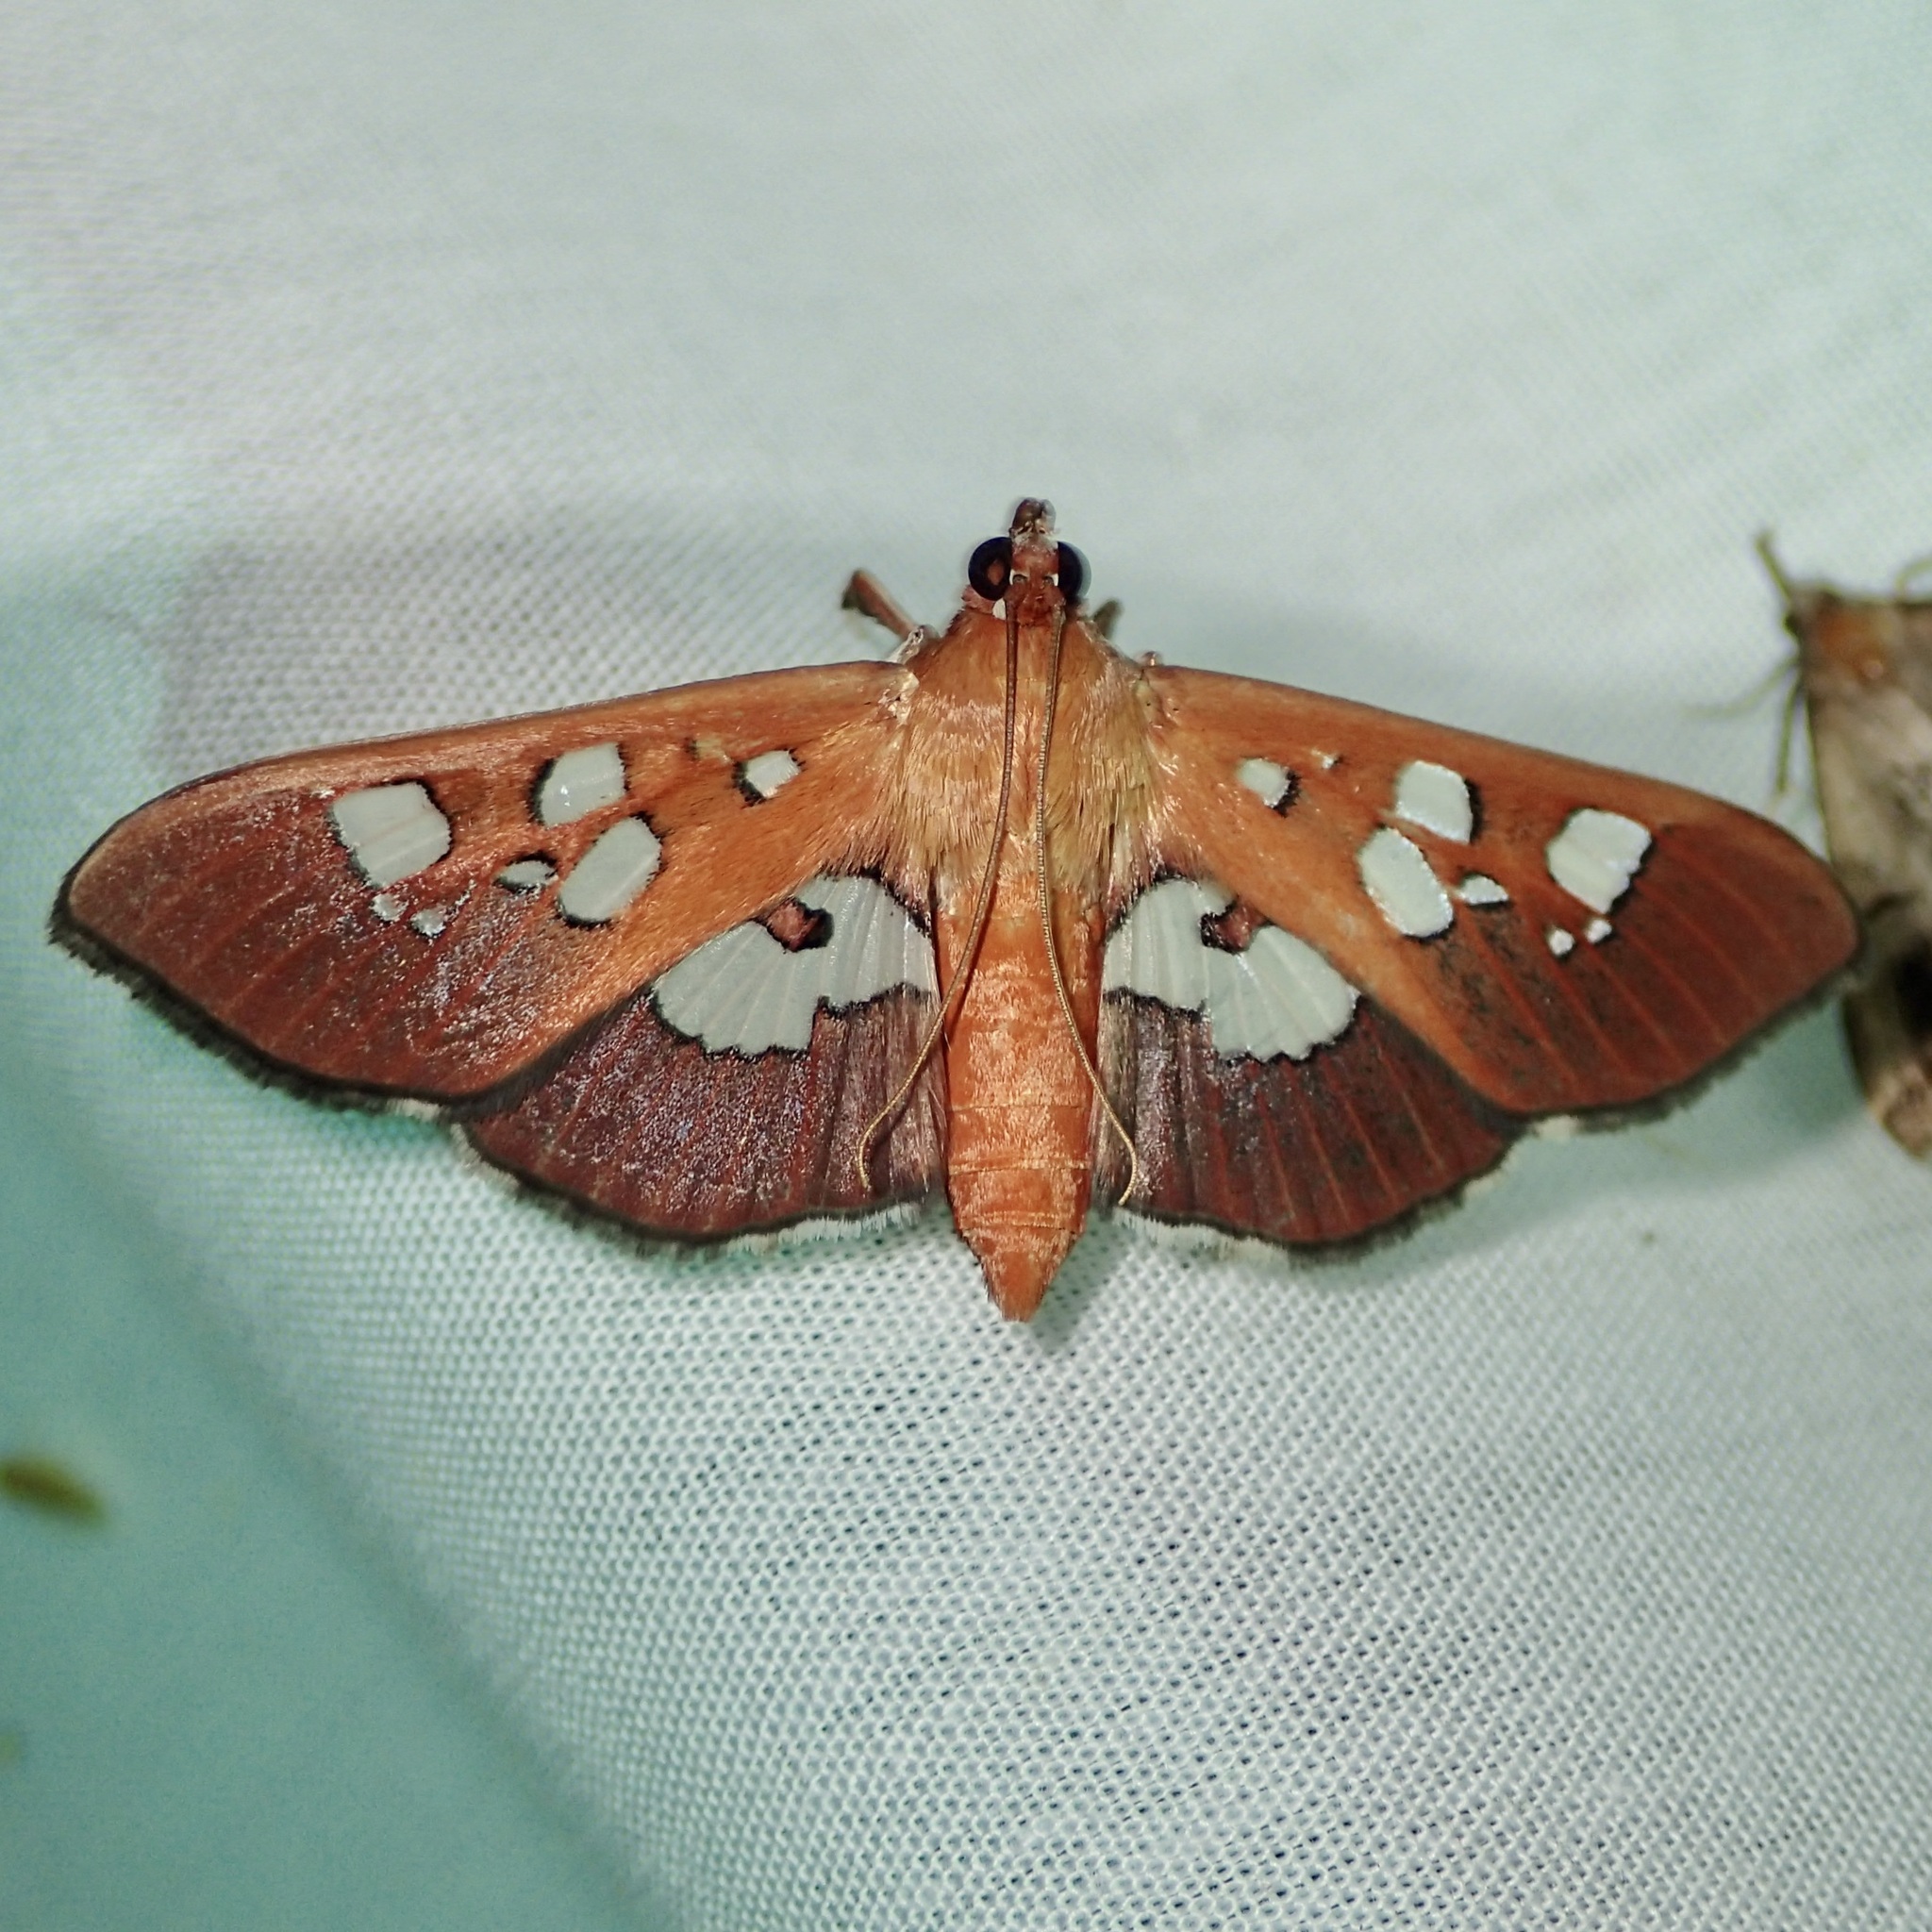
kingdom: Animalia
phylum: Arthropoda
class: Insecta
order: Lepidoptera
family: Crambidae
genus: Phostria
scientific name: Phostria tedea
